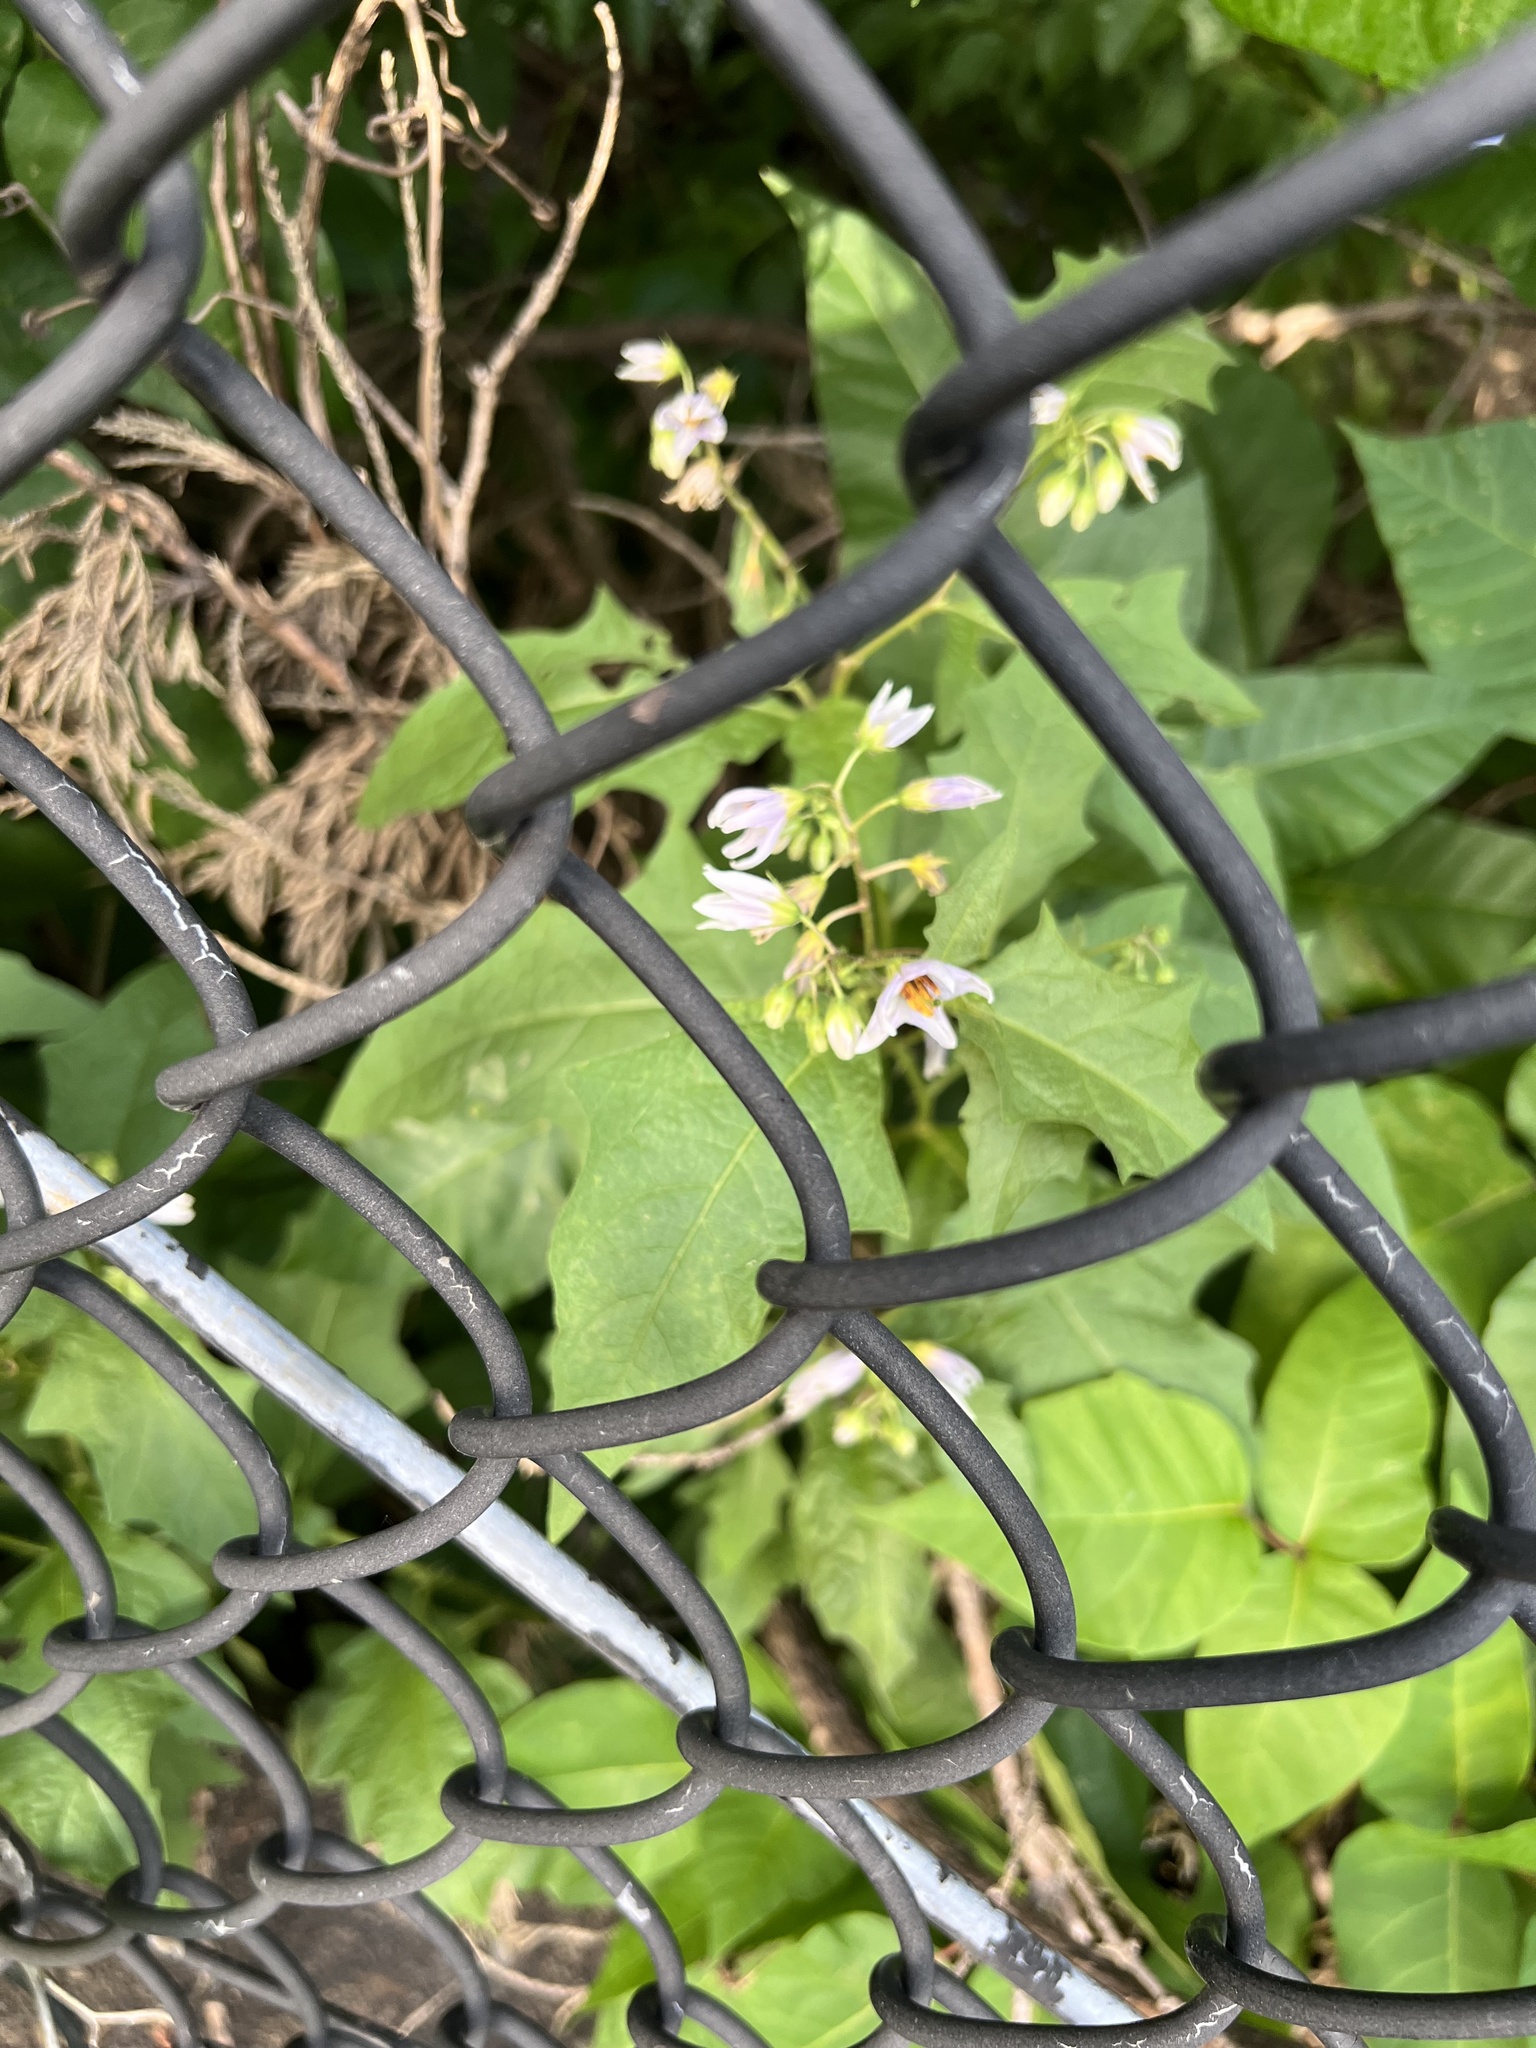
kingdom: Plantae
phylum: Tracheophyta
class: Magnoliopsida
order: Solanales
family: Solanaceae
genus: Solanum
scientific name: Solanum carolinense
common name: Horse-nettle
